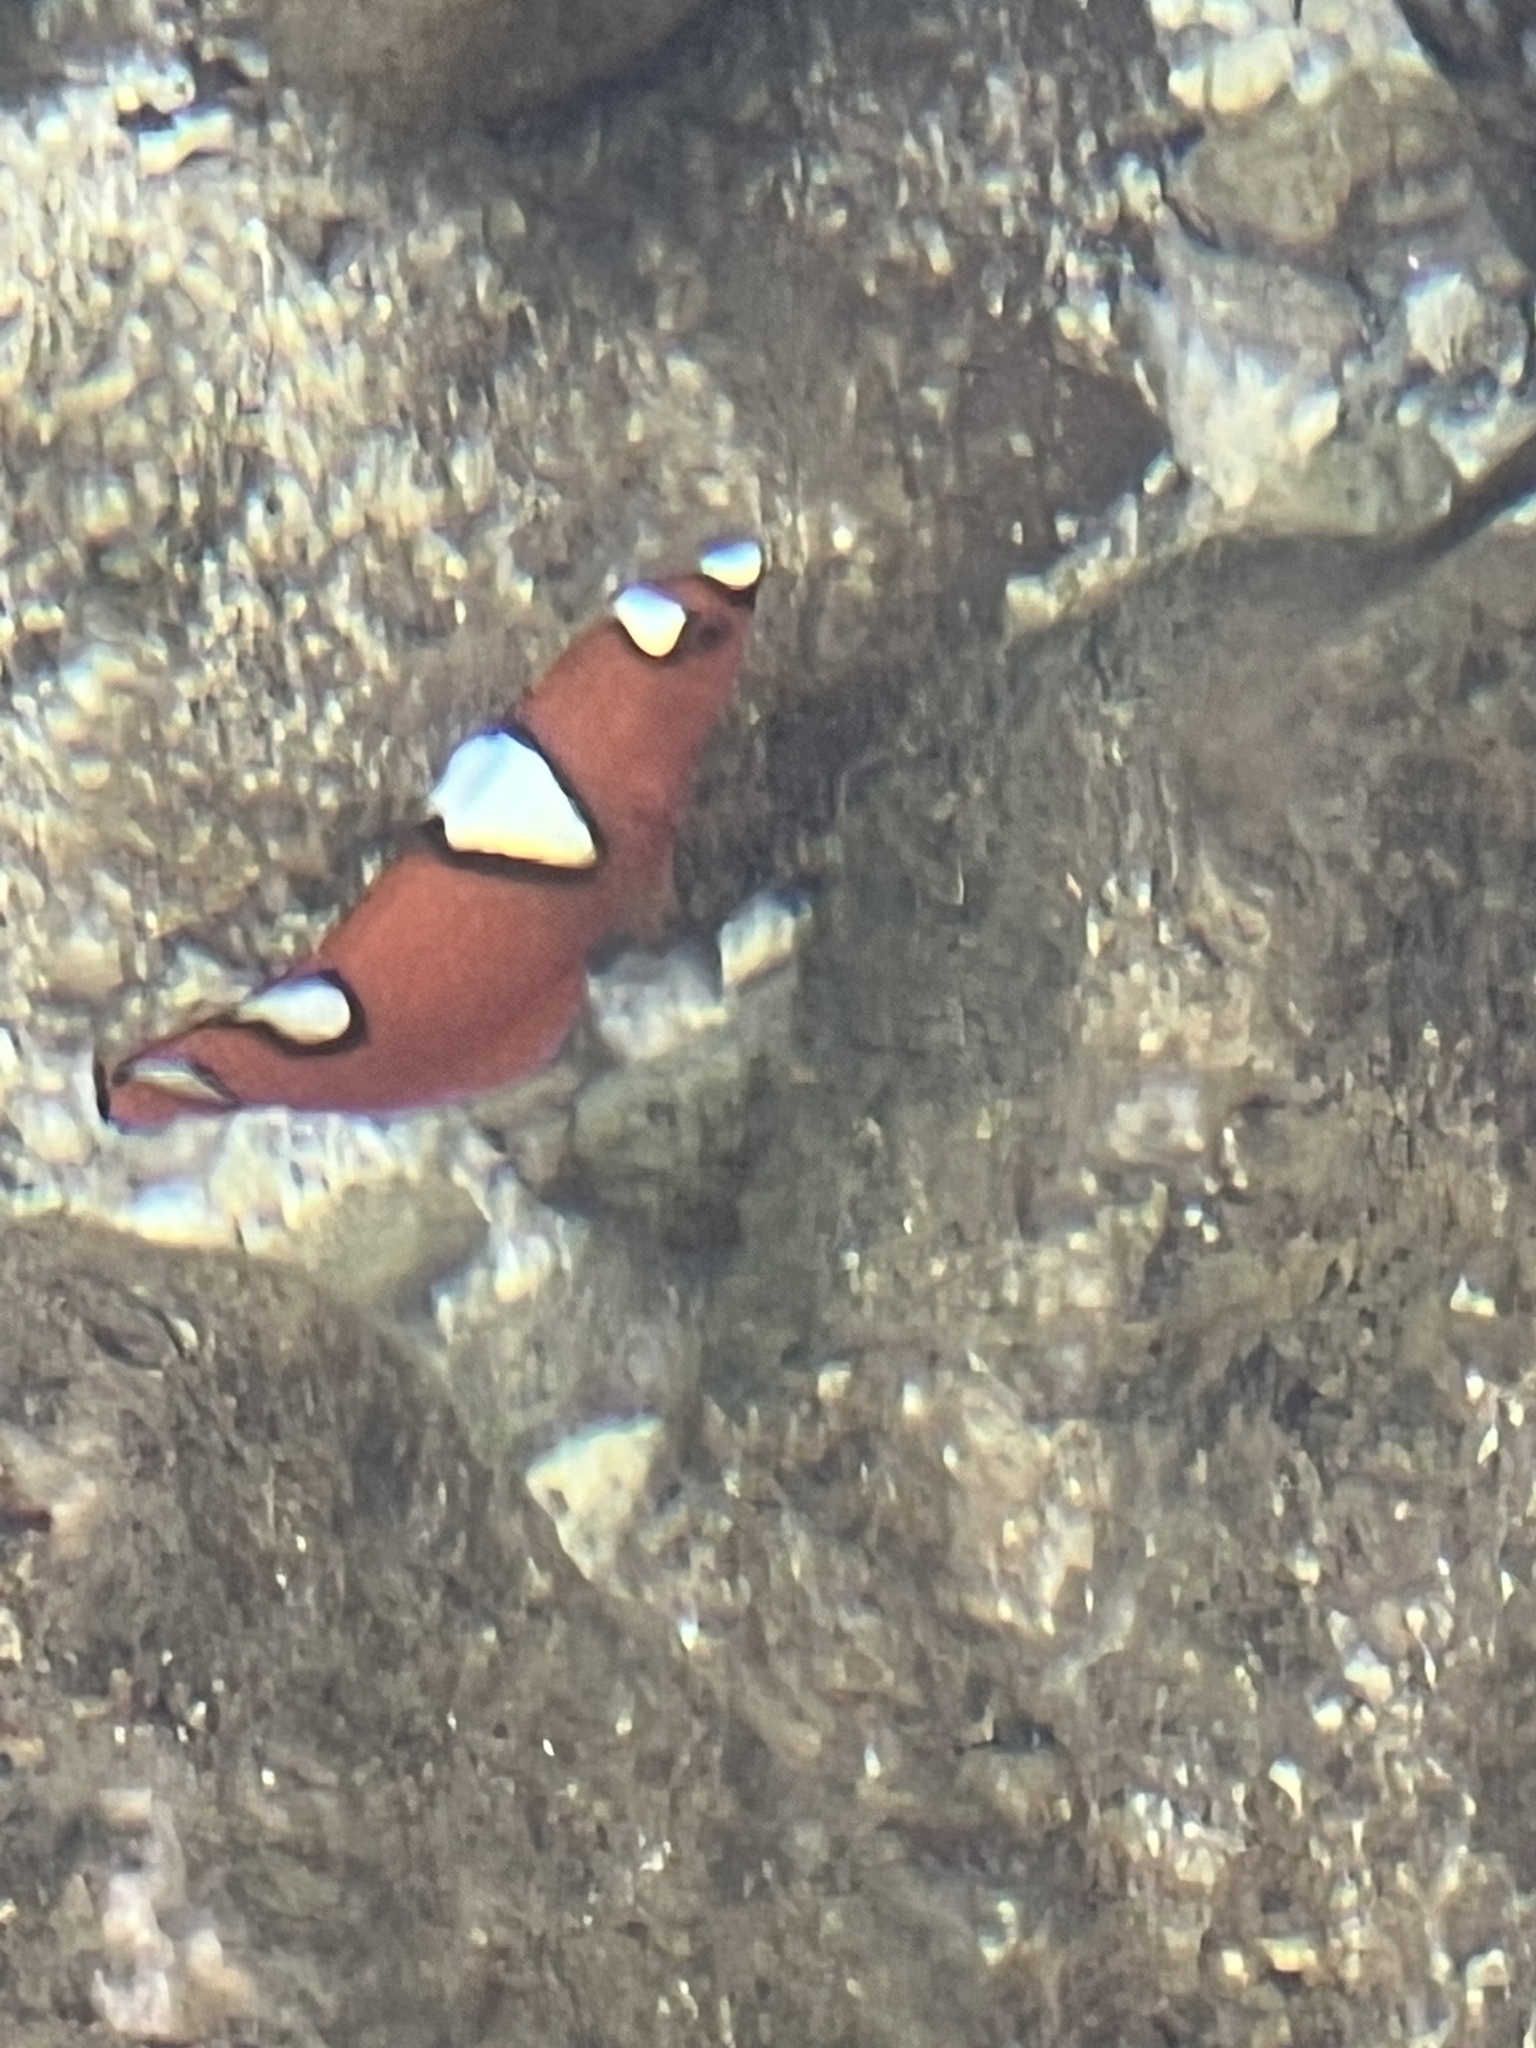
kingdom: Animalia
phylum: Chordata
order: Perciformes
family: Labridae
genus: Coris
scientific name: Coris gaimard
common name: Yellowtail coris
